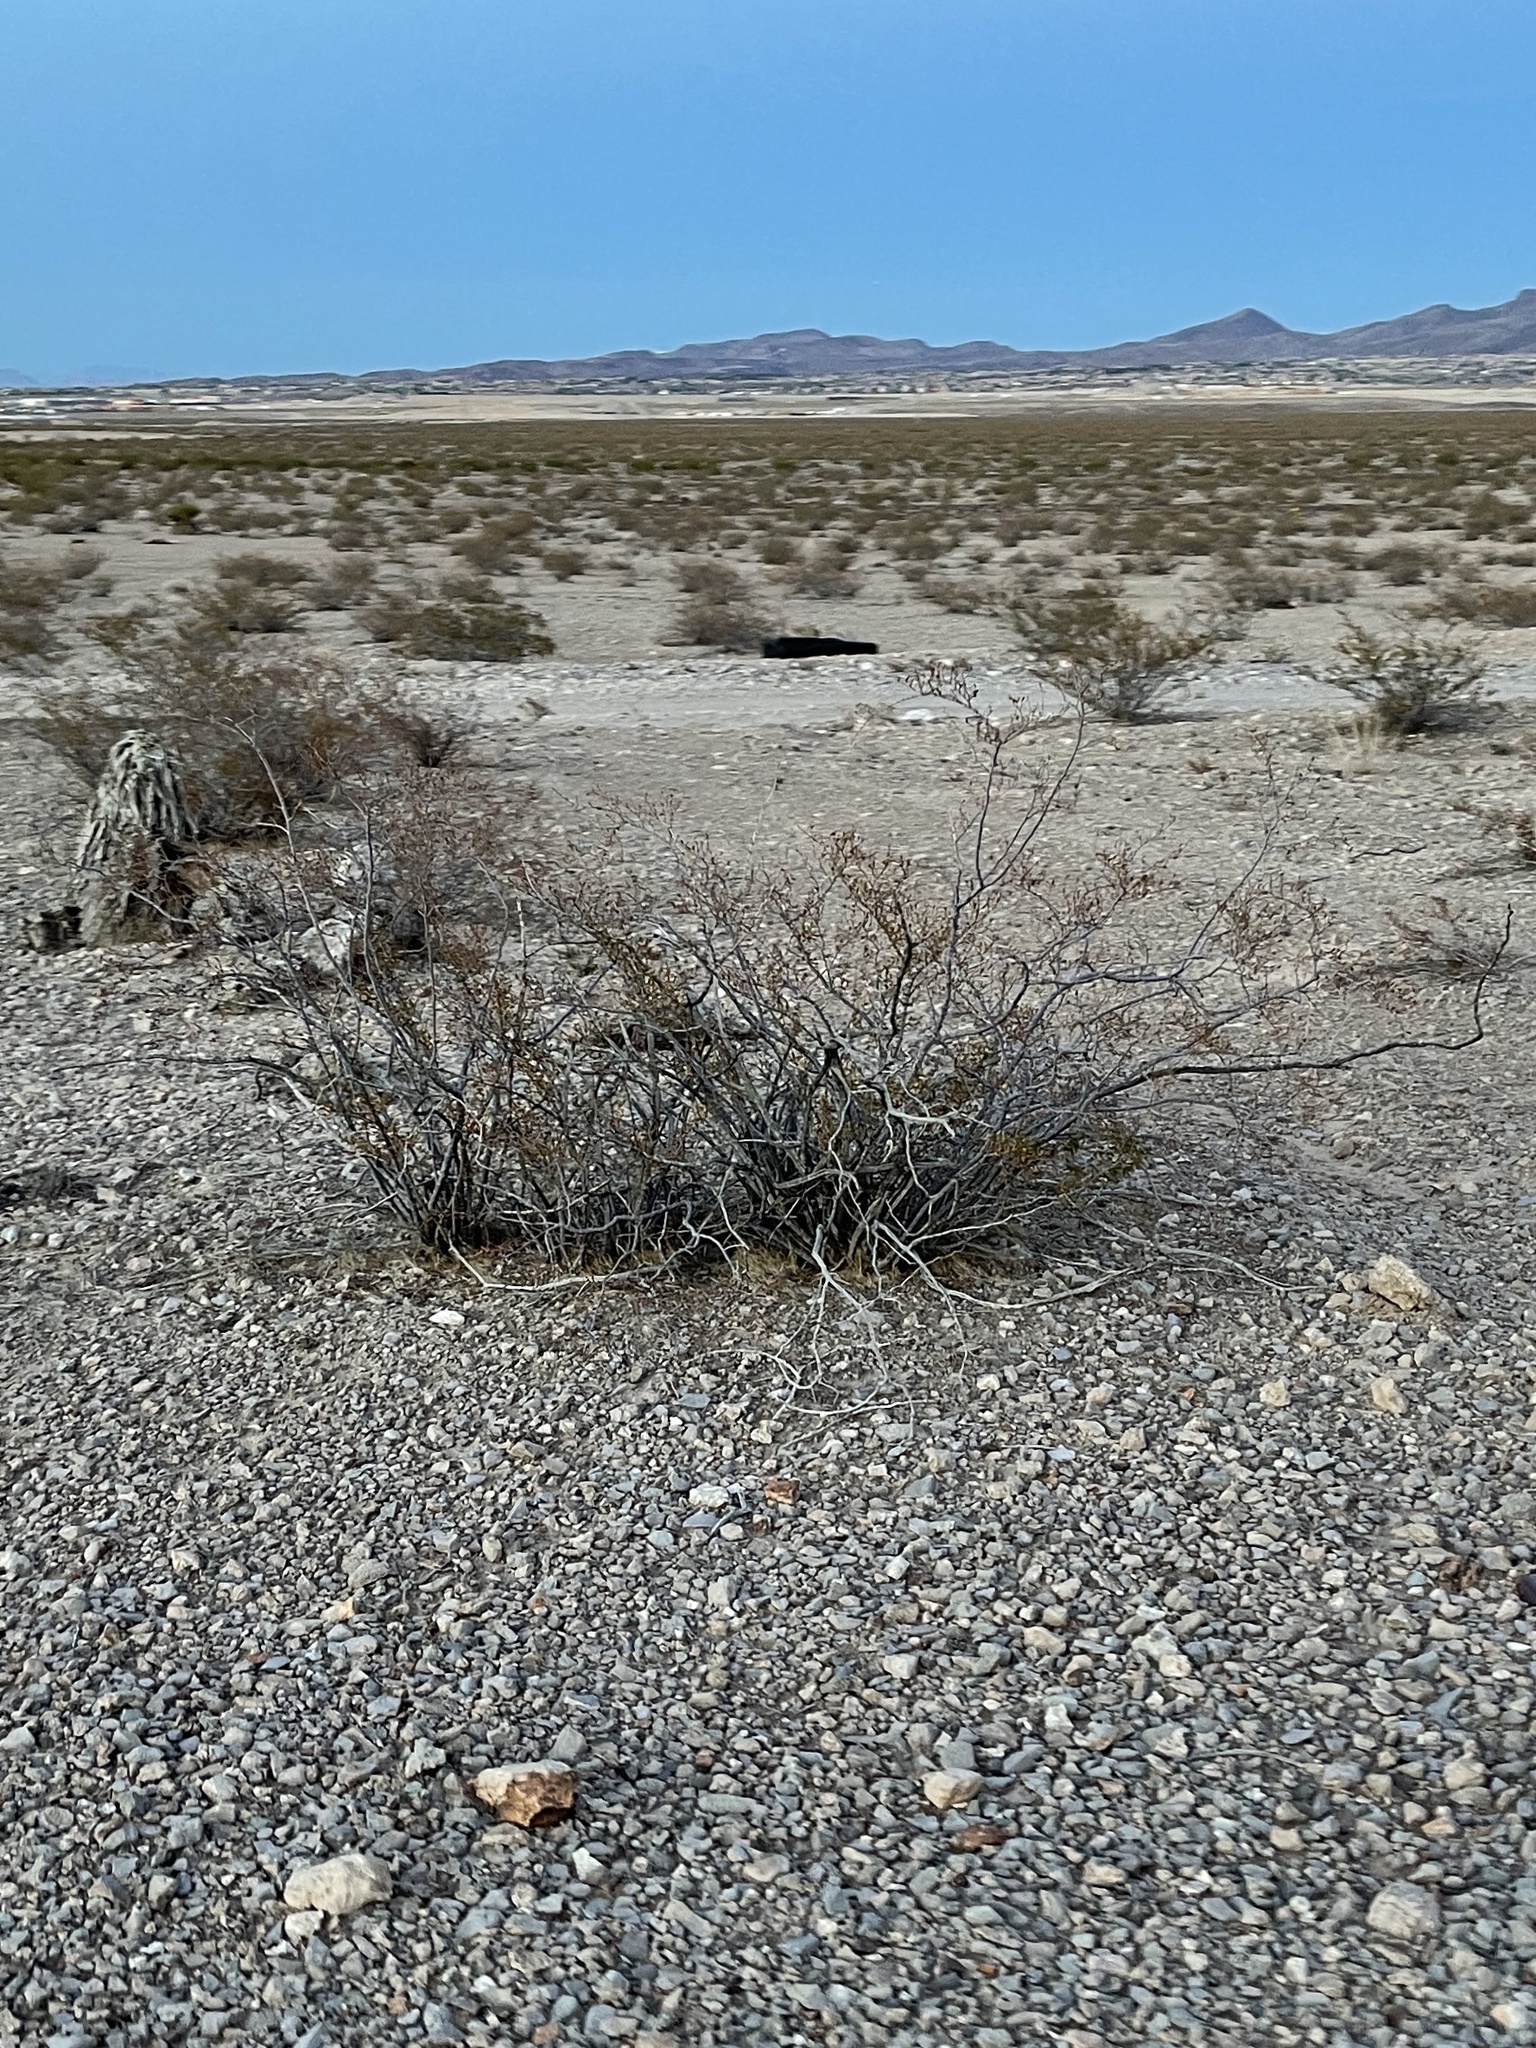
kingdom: Plantae
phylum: Tracheophyta
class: Magnoliopsida
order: Zygophyllales
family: Zygophyllaceae
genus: Larrea
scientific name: Larrea tridentata
